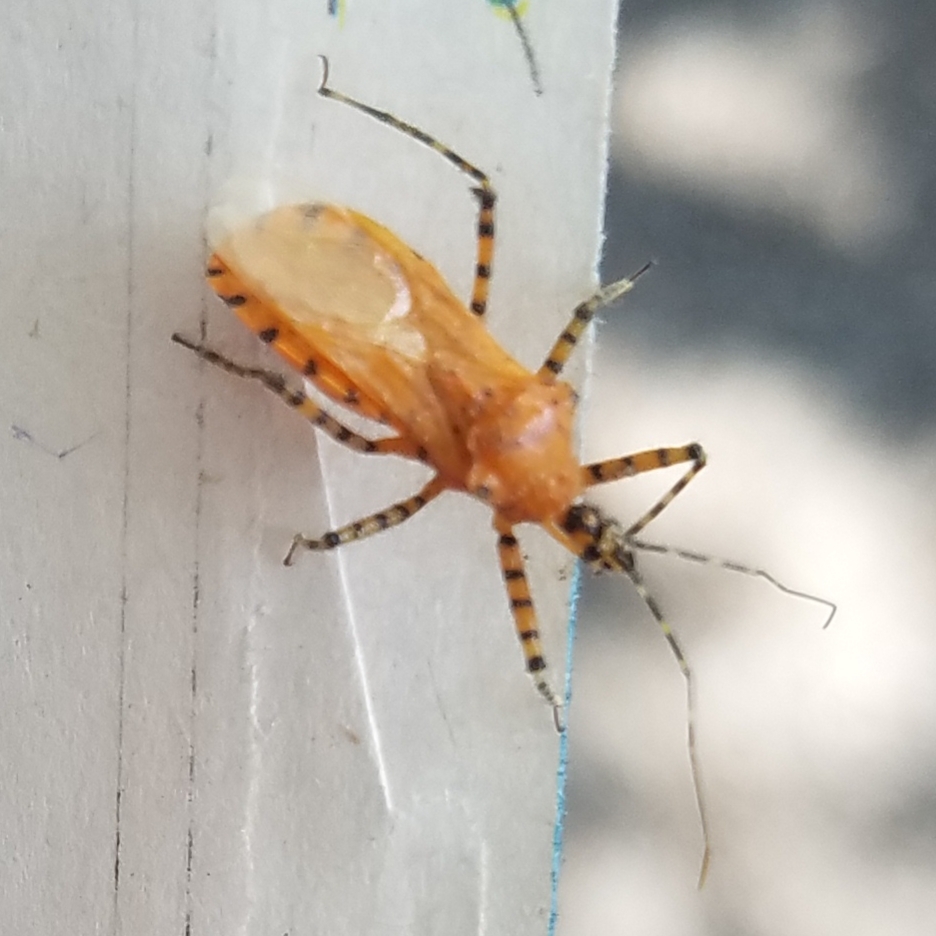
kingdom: Animalia
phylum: Arthropoda
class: Insecta
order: Hemiptera
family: Reduviidae
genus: Pselliopus
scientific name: Pselliopus barberi
